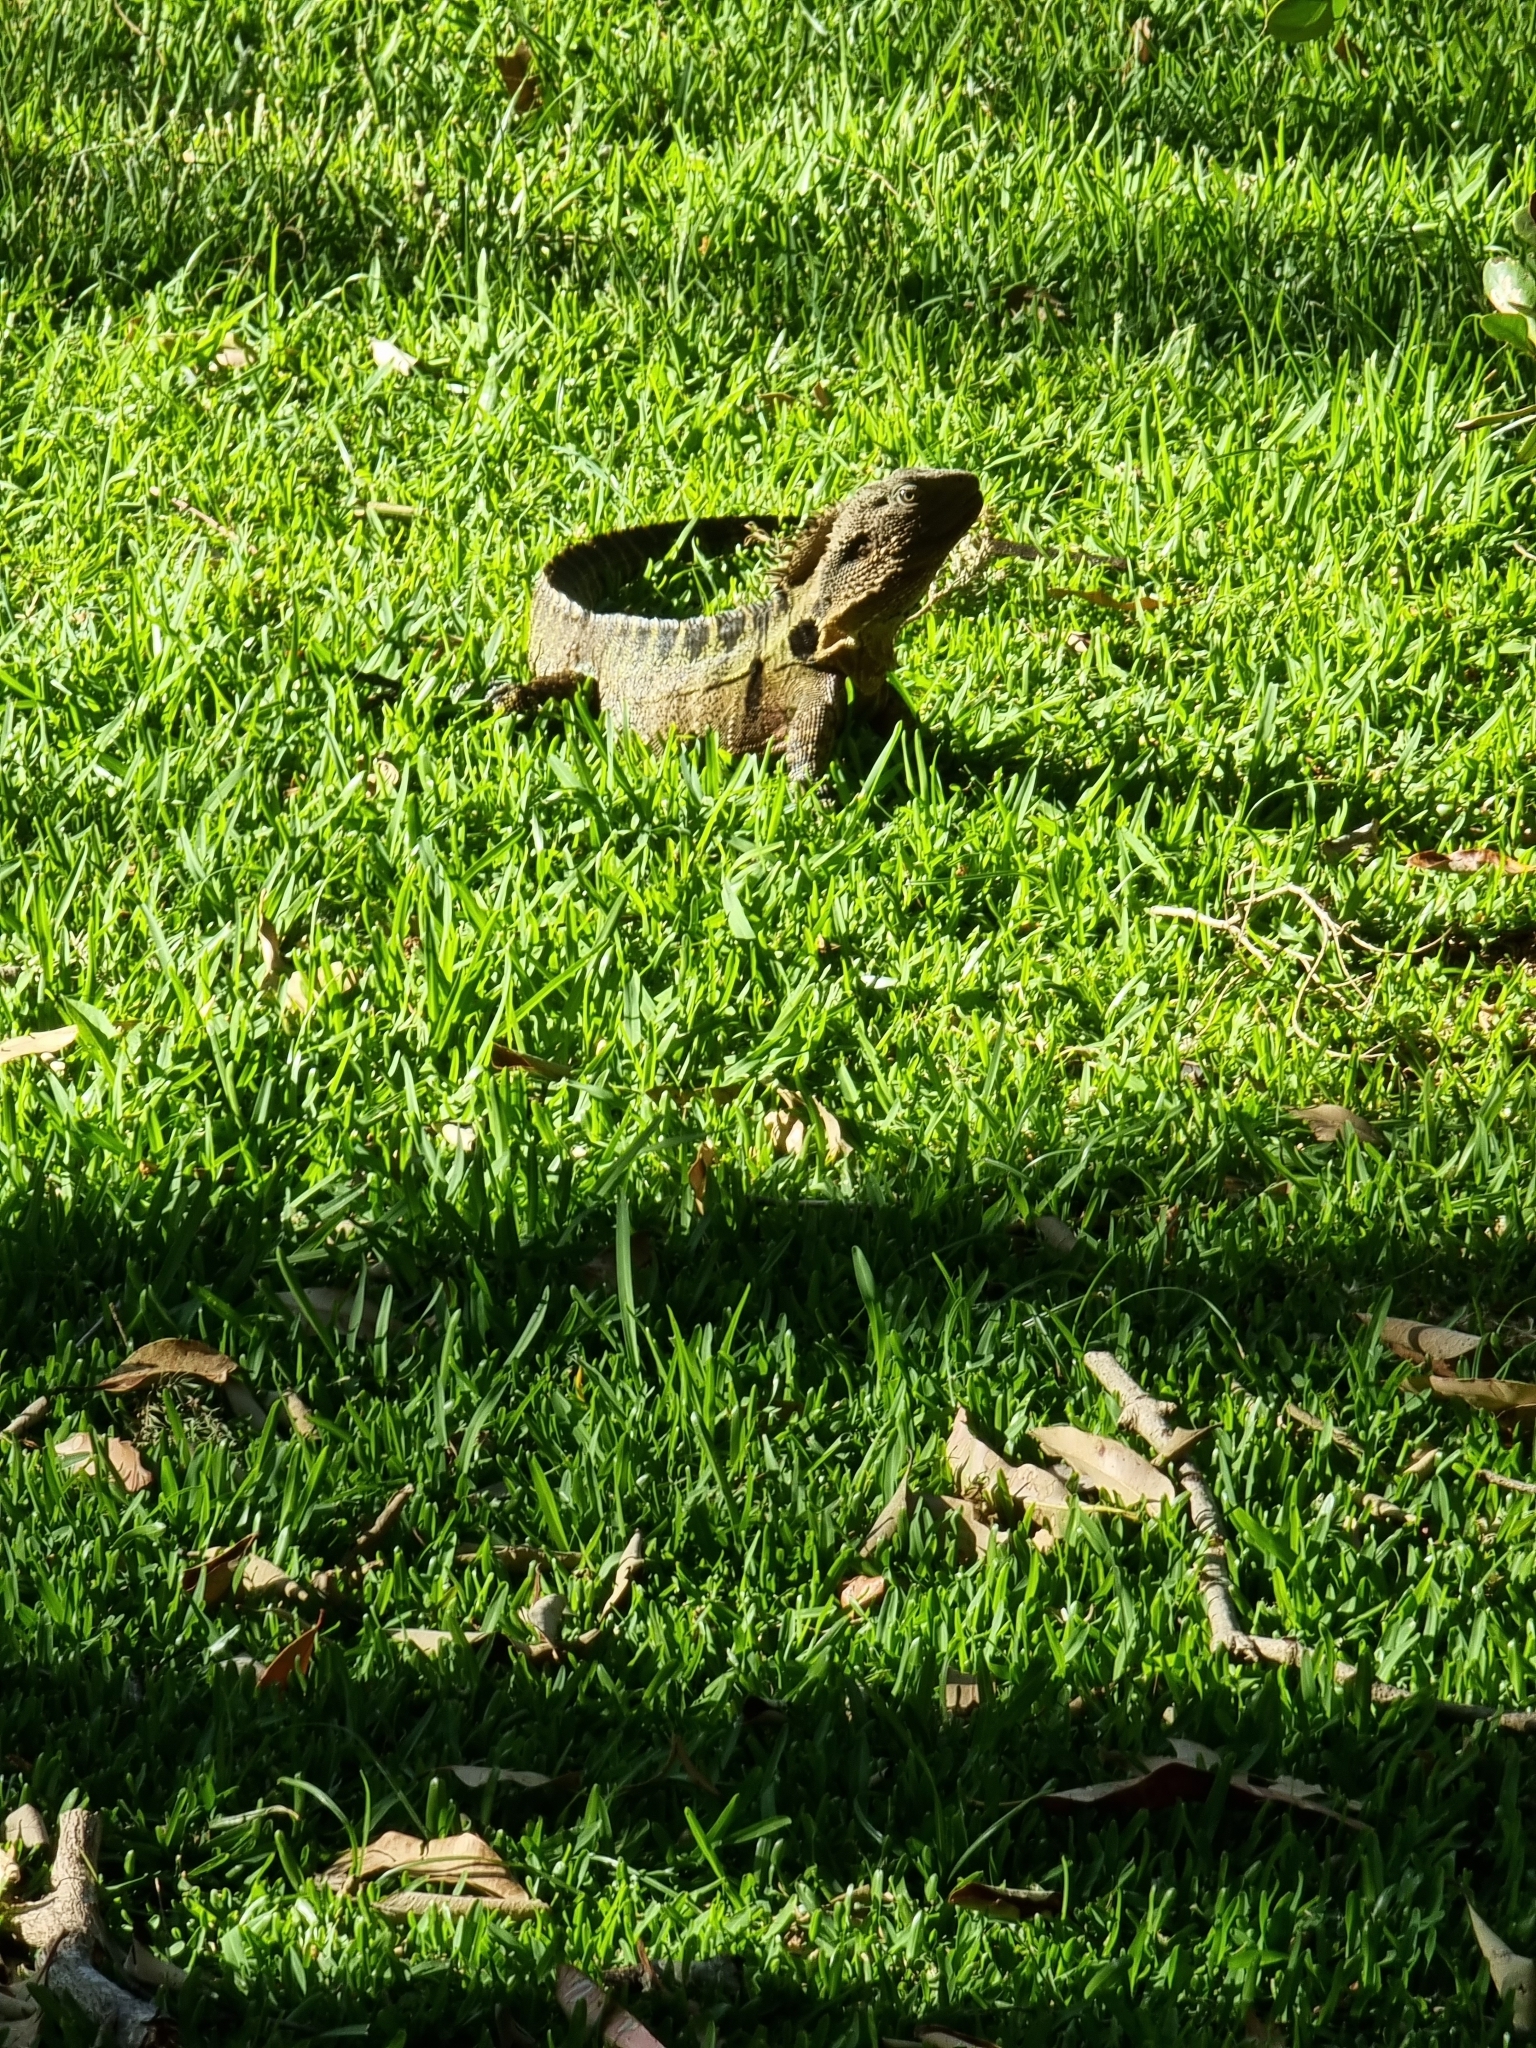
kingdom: Animalia
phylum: Chordata
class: Squamata
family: Agamidae
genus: Intellagama
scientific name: Intellagama lesueurii
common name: Eastern water dragon
